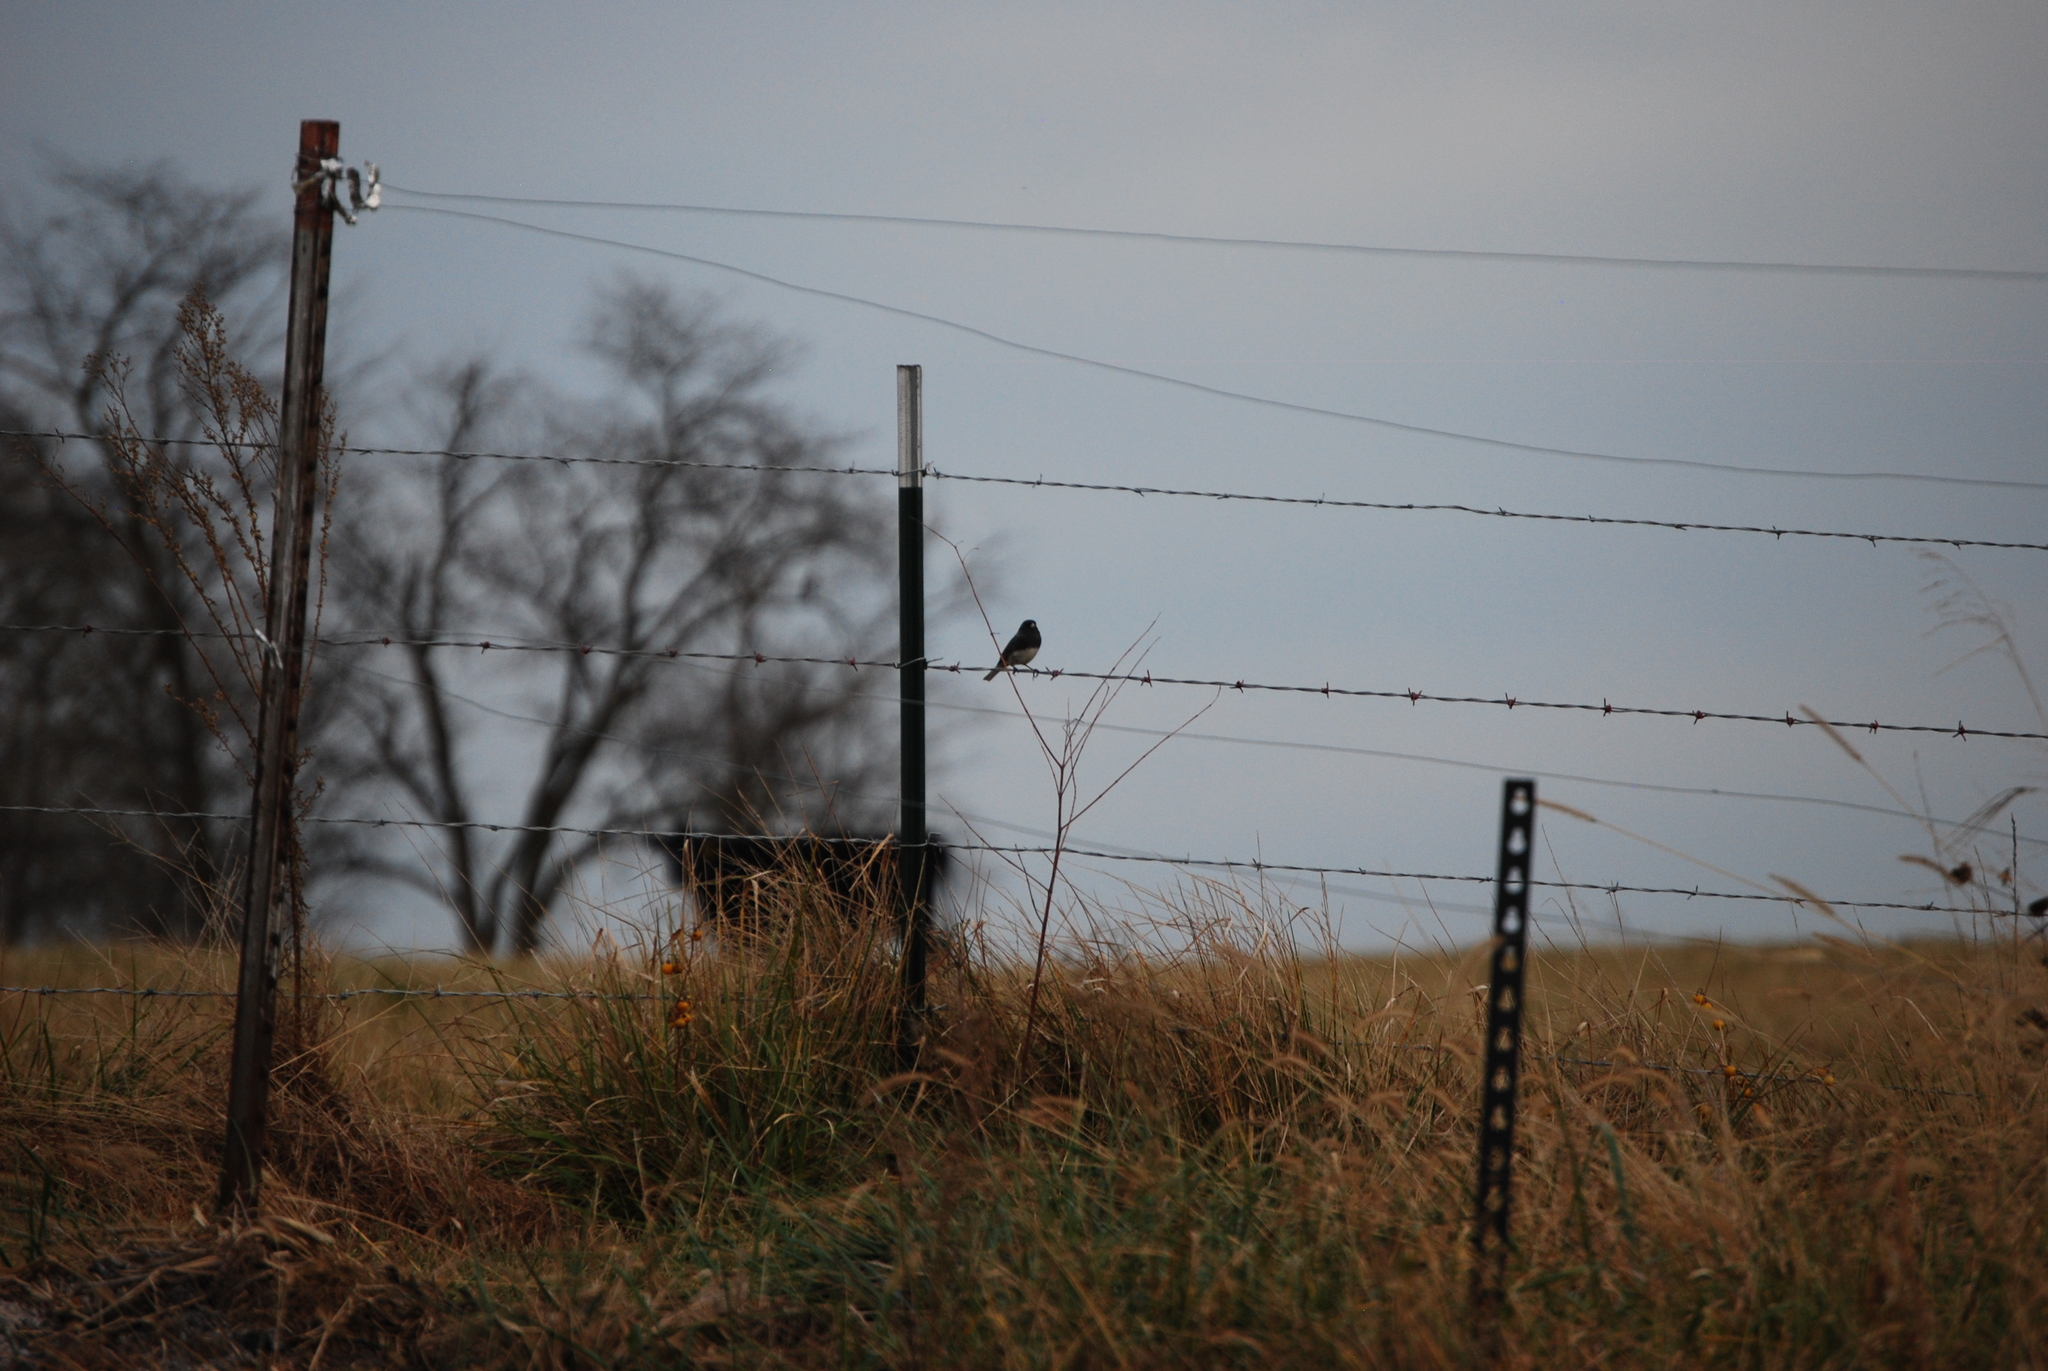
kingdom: Animalia
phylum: Chordata
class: Aves
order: Passeriformes
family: Passerellidae
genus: Junco
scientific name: Junco hyemalis
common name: Dark-eyed junco
